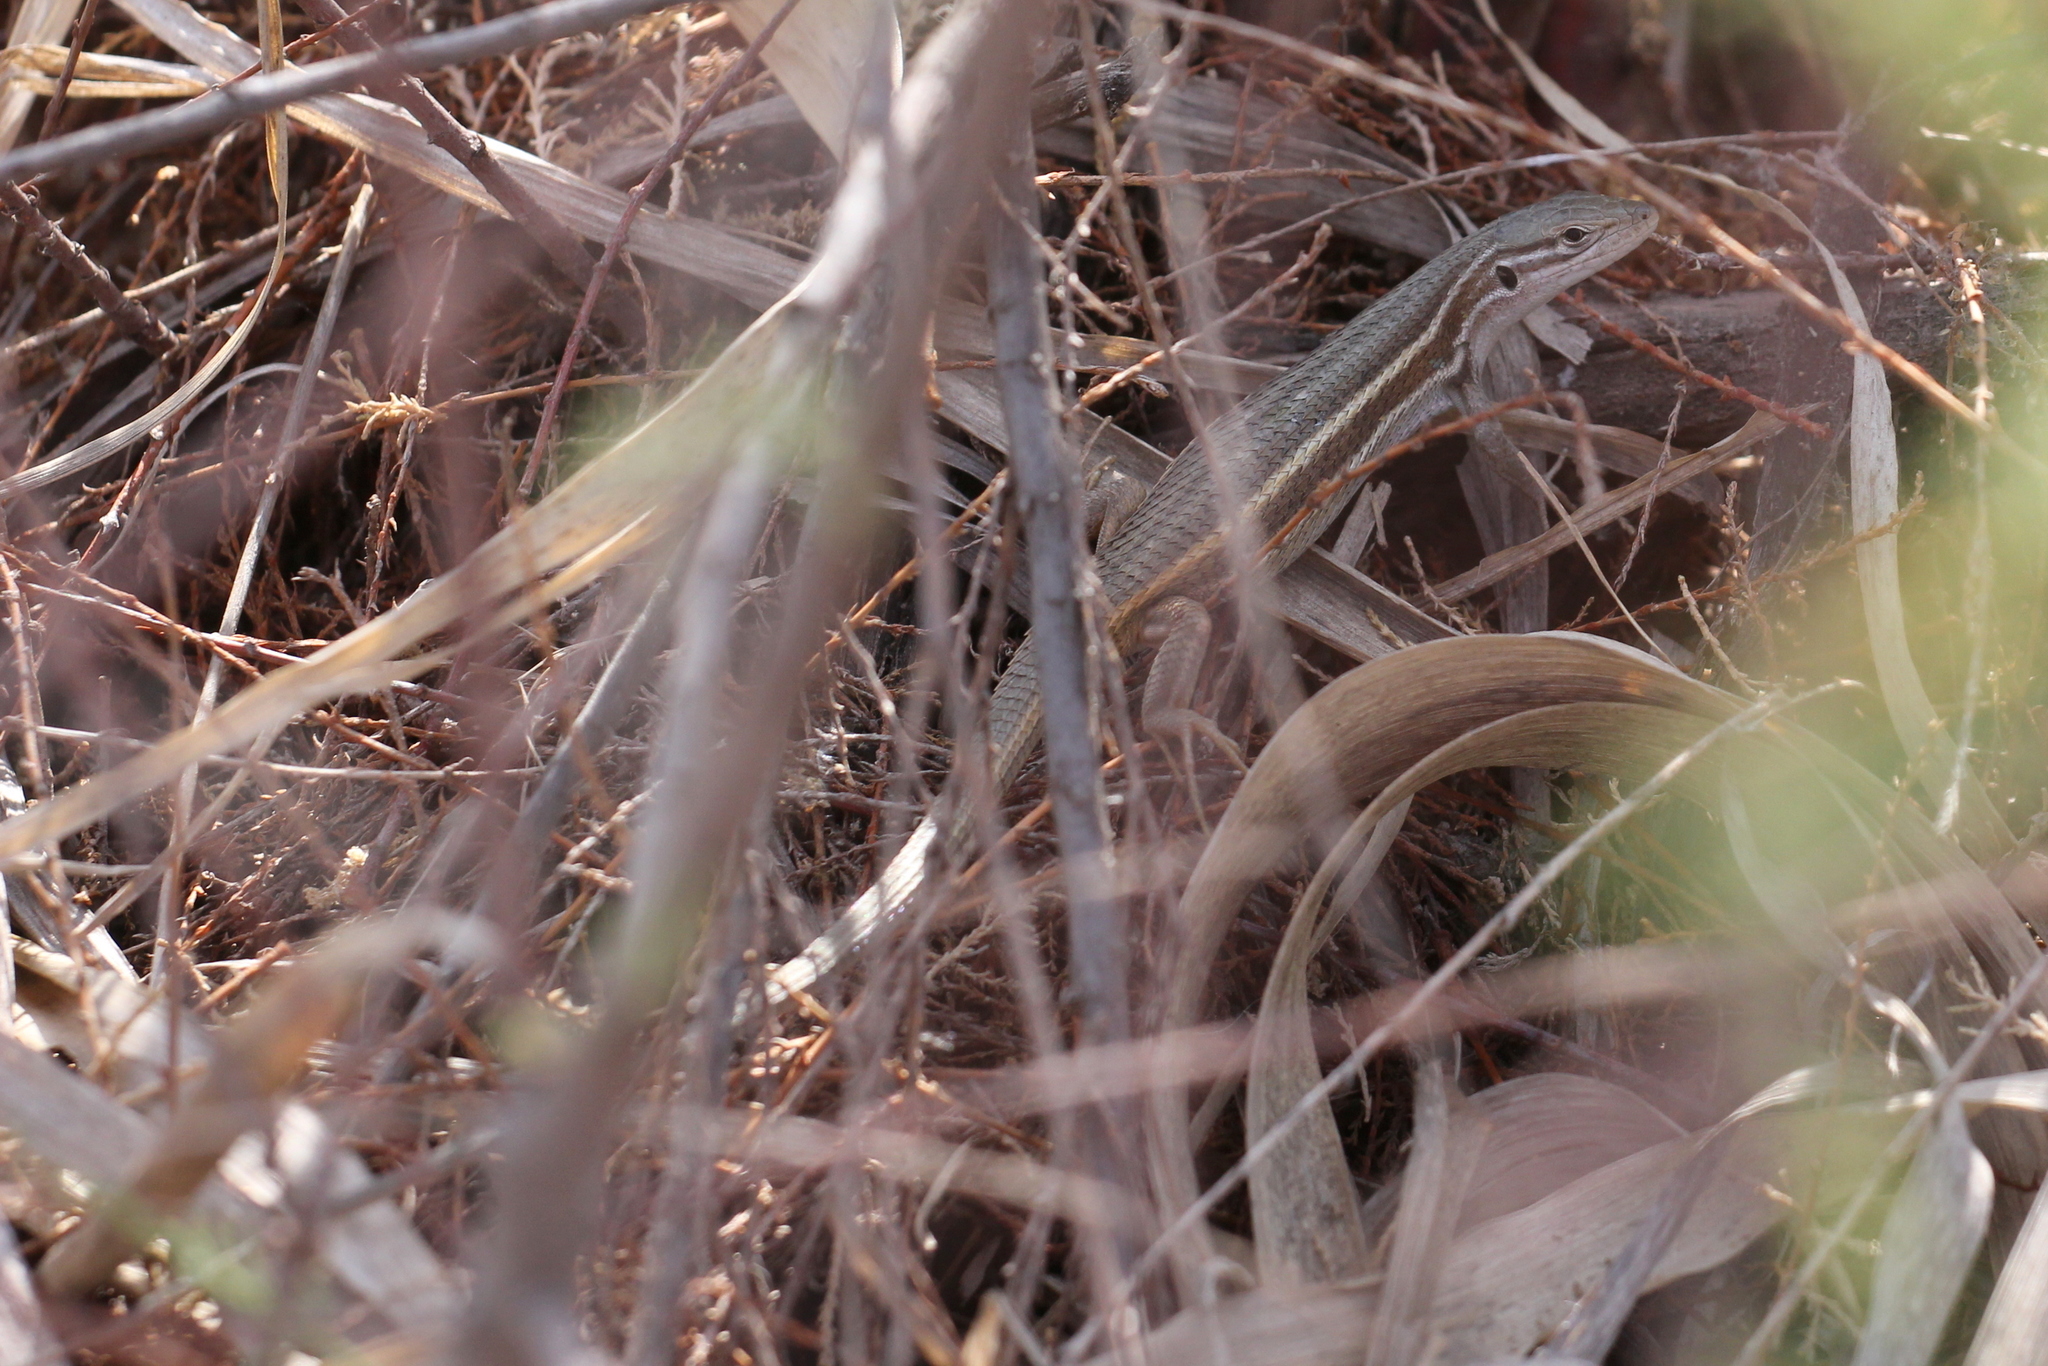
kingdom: Animalia
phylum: Chordata
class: Squamata
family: Lacertidae
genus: Psammodromus
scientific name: Psammodromus algirus
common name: Algerian psammodromus
